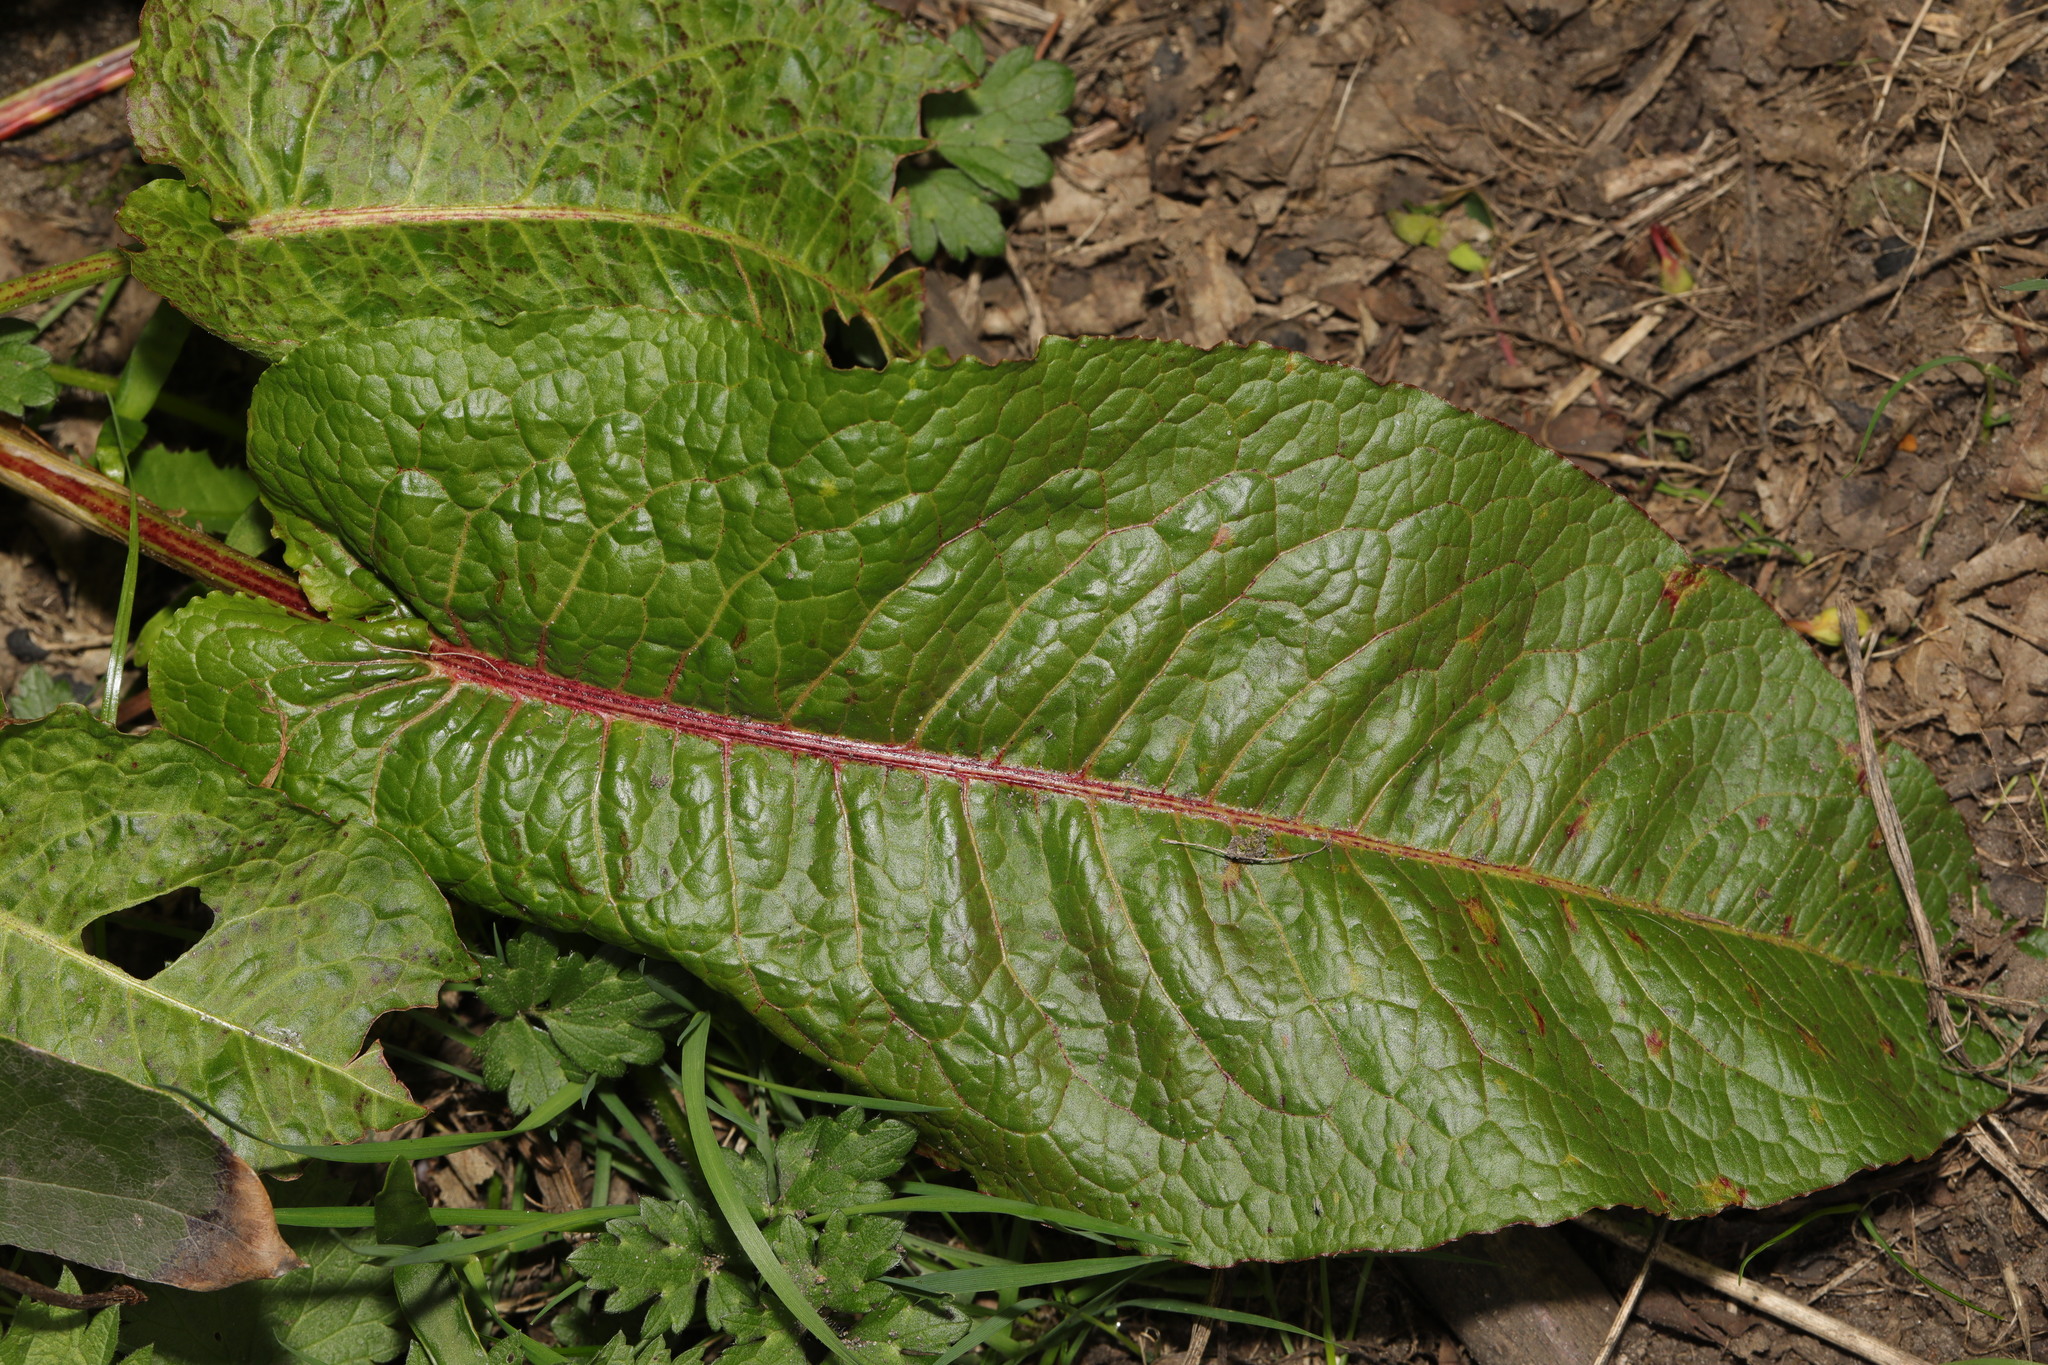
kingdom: Plantae
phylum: Tracheophyta
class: Magnoliopsida
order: Caryophyllales
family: Polygonaceae
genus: Rumex
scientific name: Rumex obtusifolius
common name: Bitter dock
